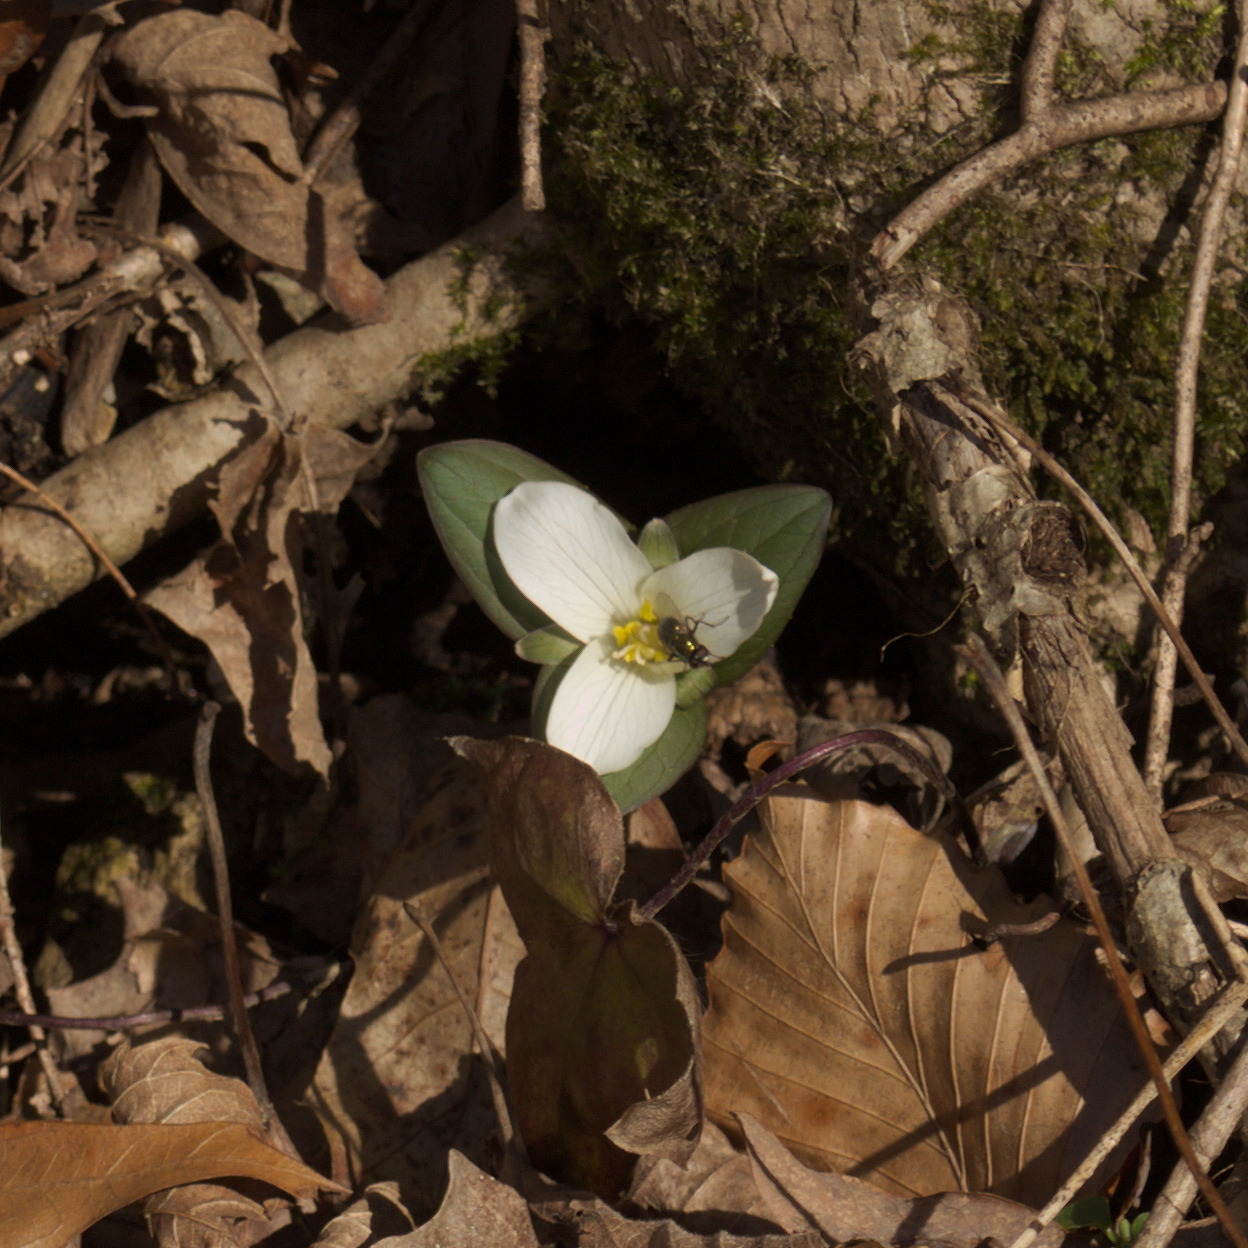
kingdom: Plantae
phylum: Tracheophyta
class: Liliopsida
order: Liliales
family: Melanthiaceae
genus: Trillium
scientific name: Trillium nivale
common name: Dwarf white trillium
